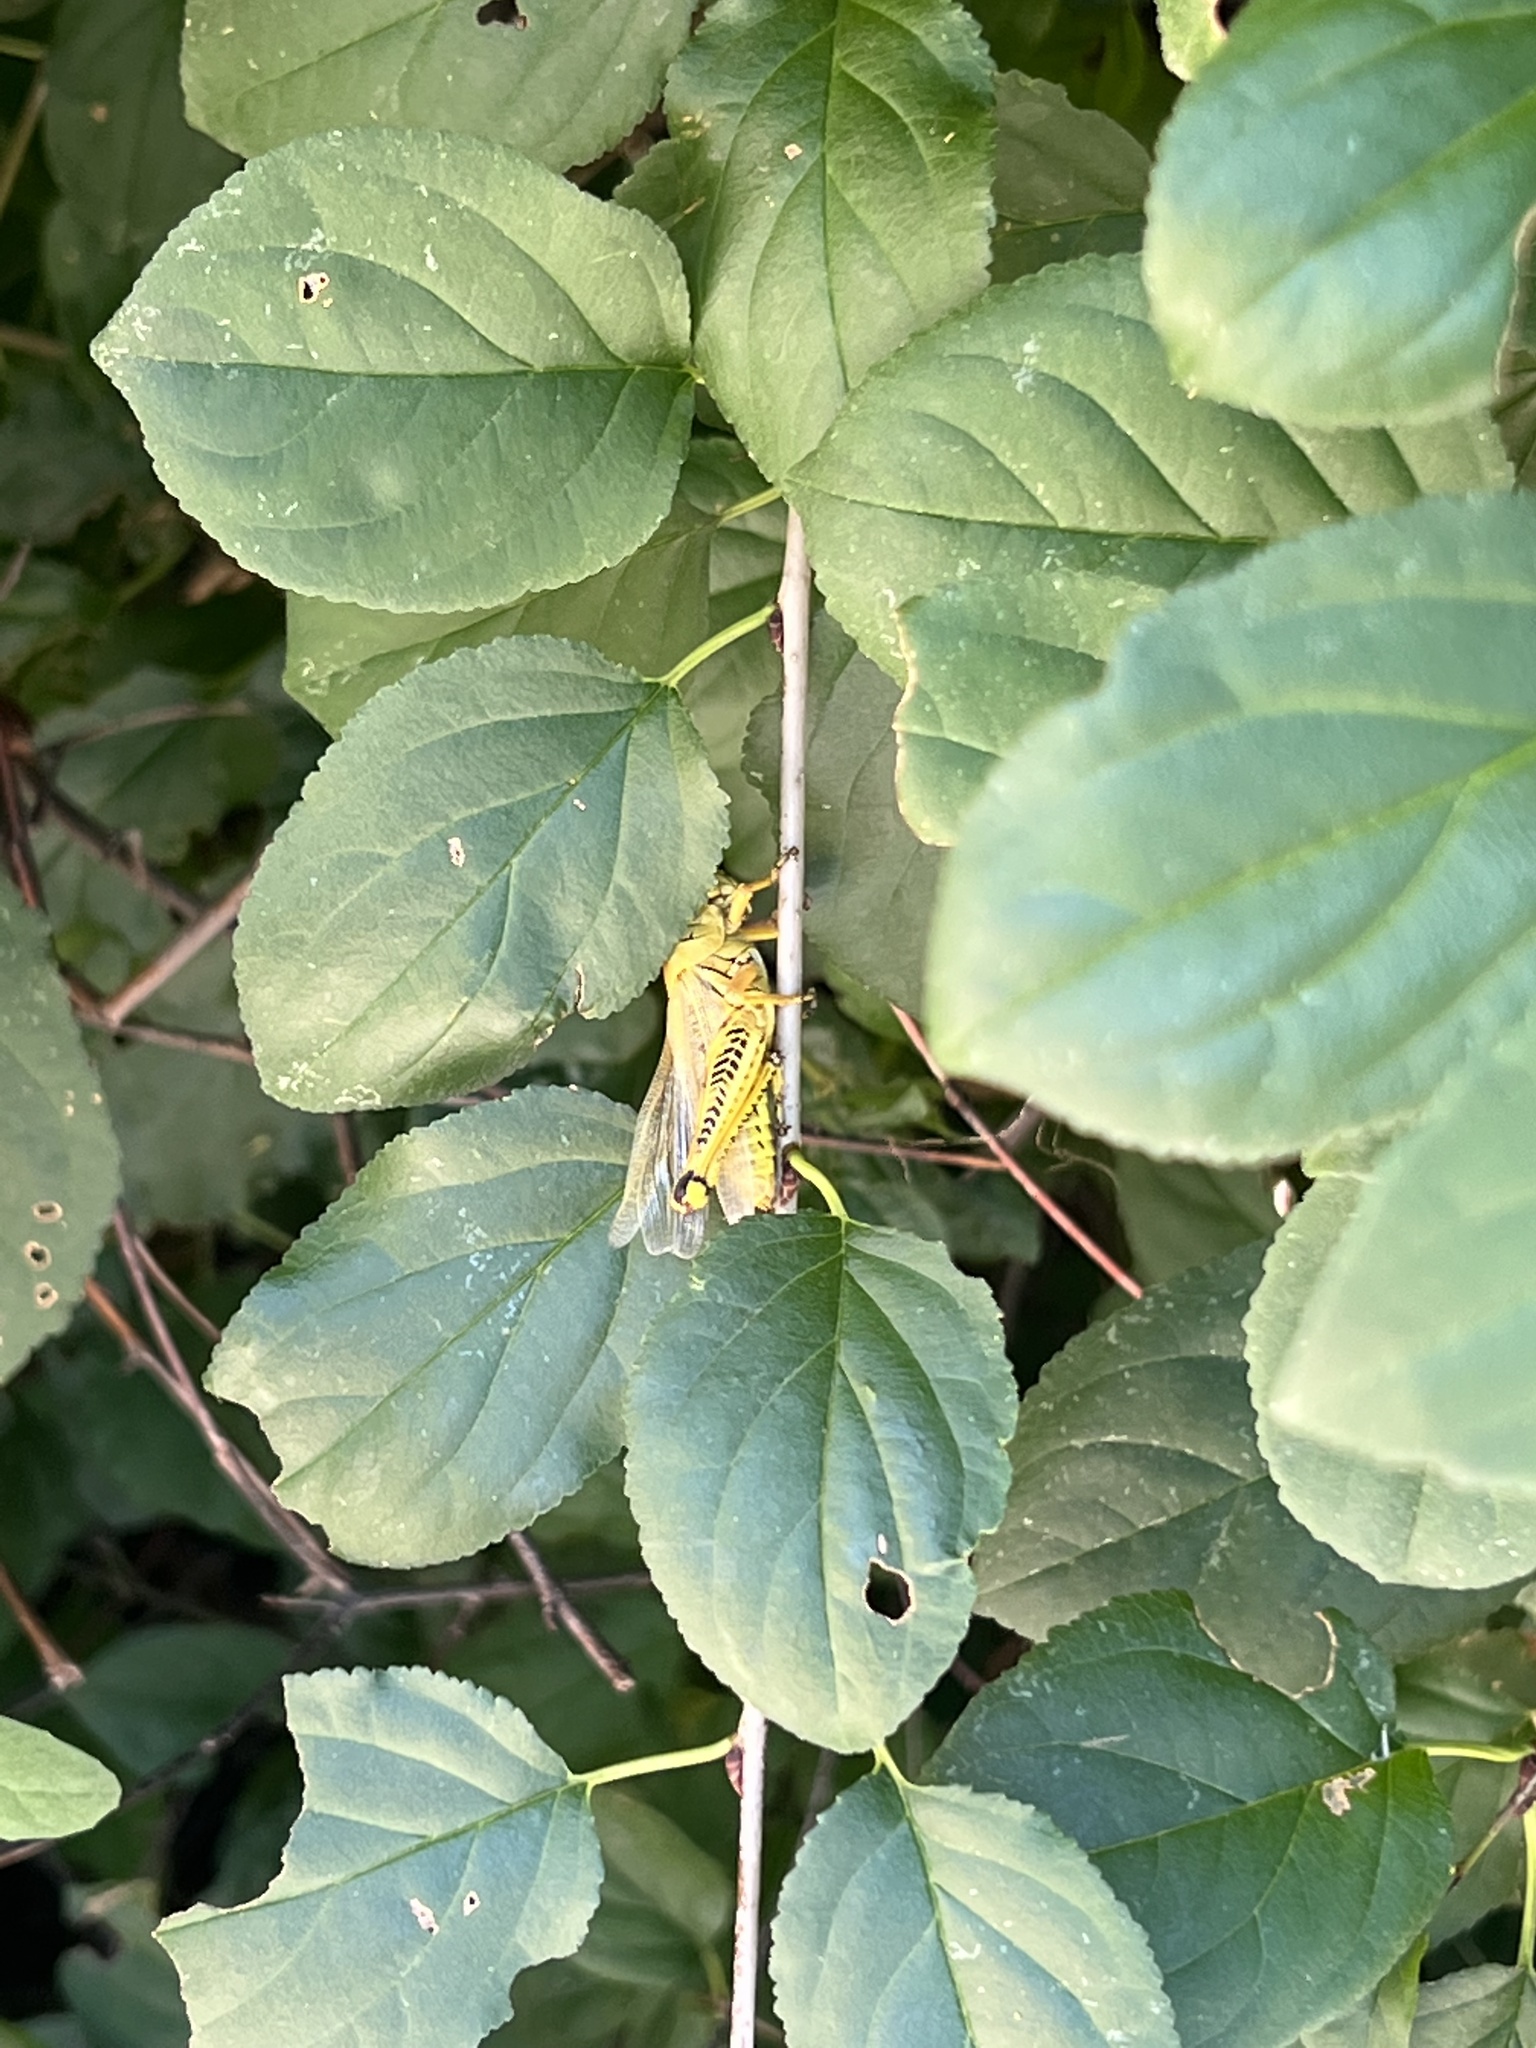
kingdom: Animalia
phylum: Arthropoda
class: Insecta
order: Orthoptera
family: Acrididae
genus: Melanoplus
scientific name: Melanoplus differentialis
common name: Differential grasshopper
